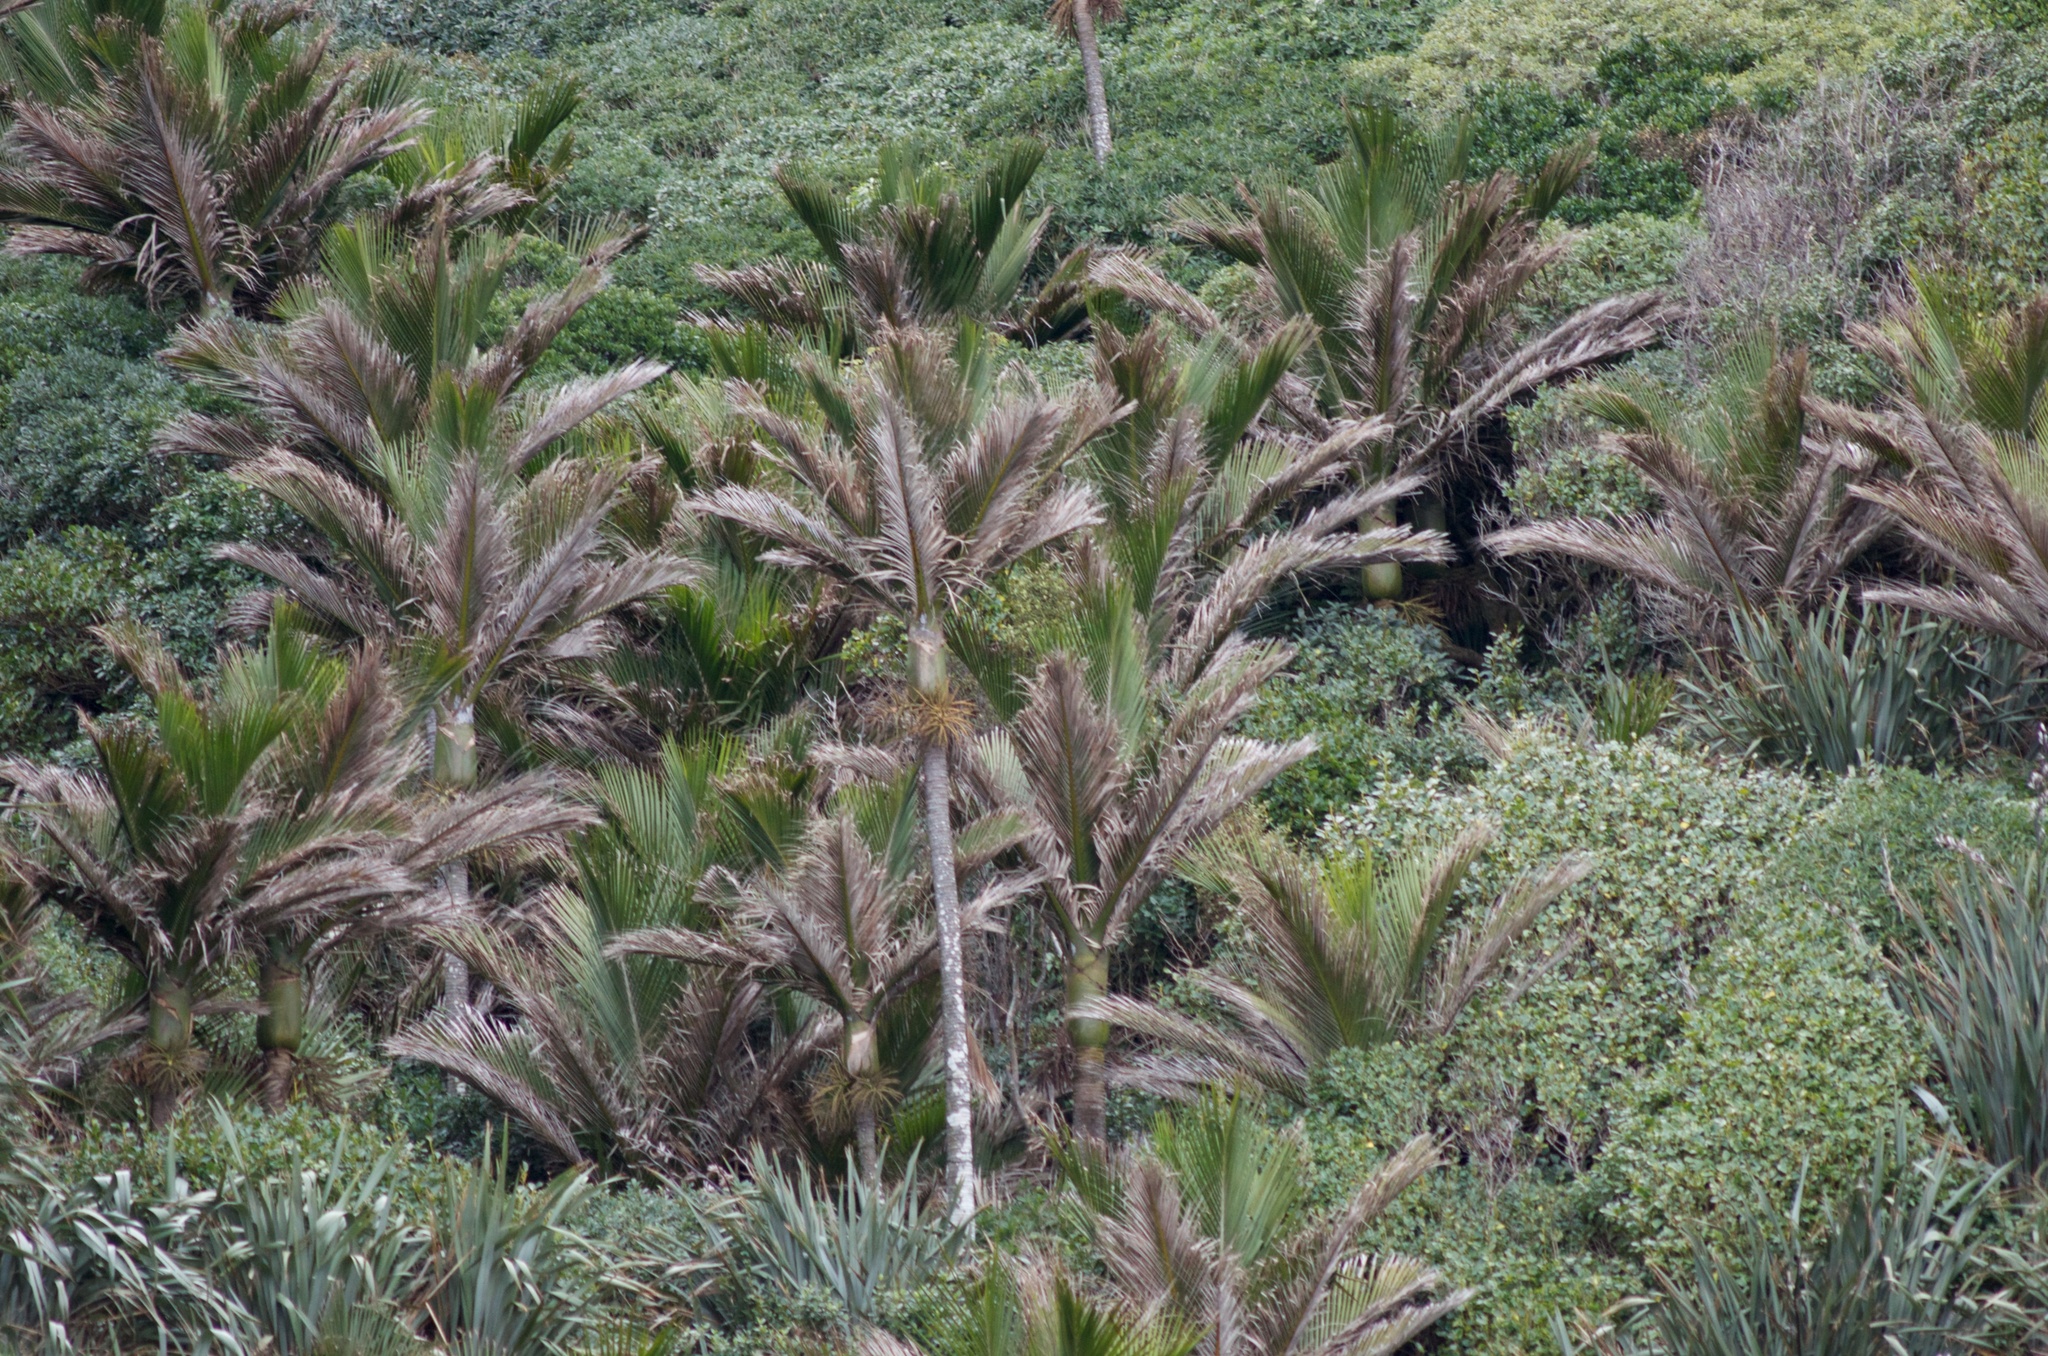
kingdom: Plantae
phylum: Tracheophyta
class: Liliopsida
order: Arecales
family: Arecaceae
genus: Rhopalostylis
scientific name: Rhopalostylis sapida
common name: Feather-duster palm
